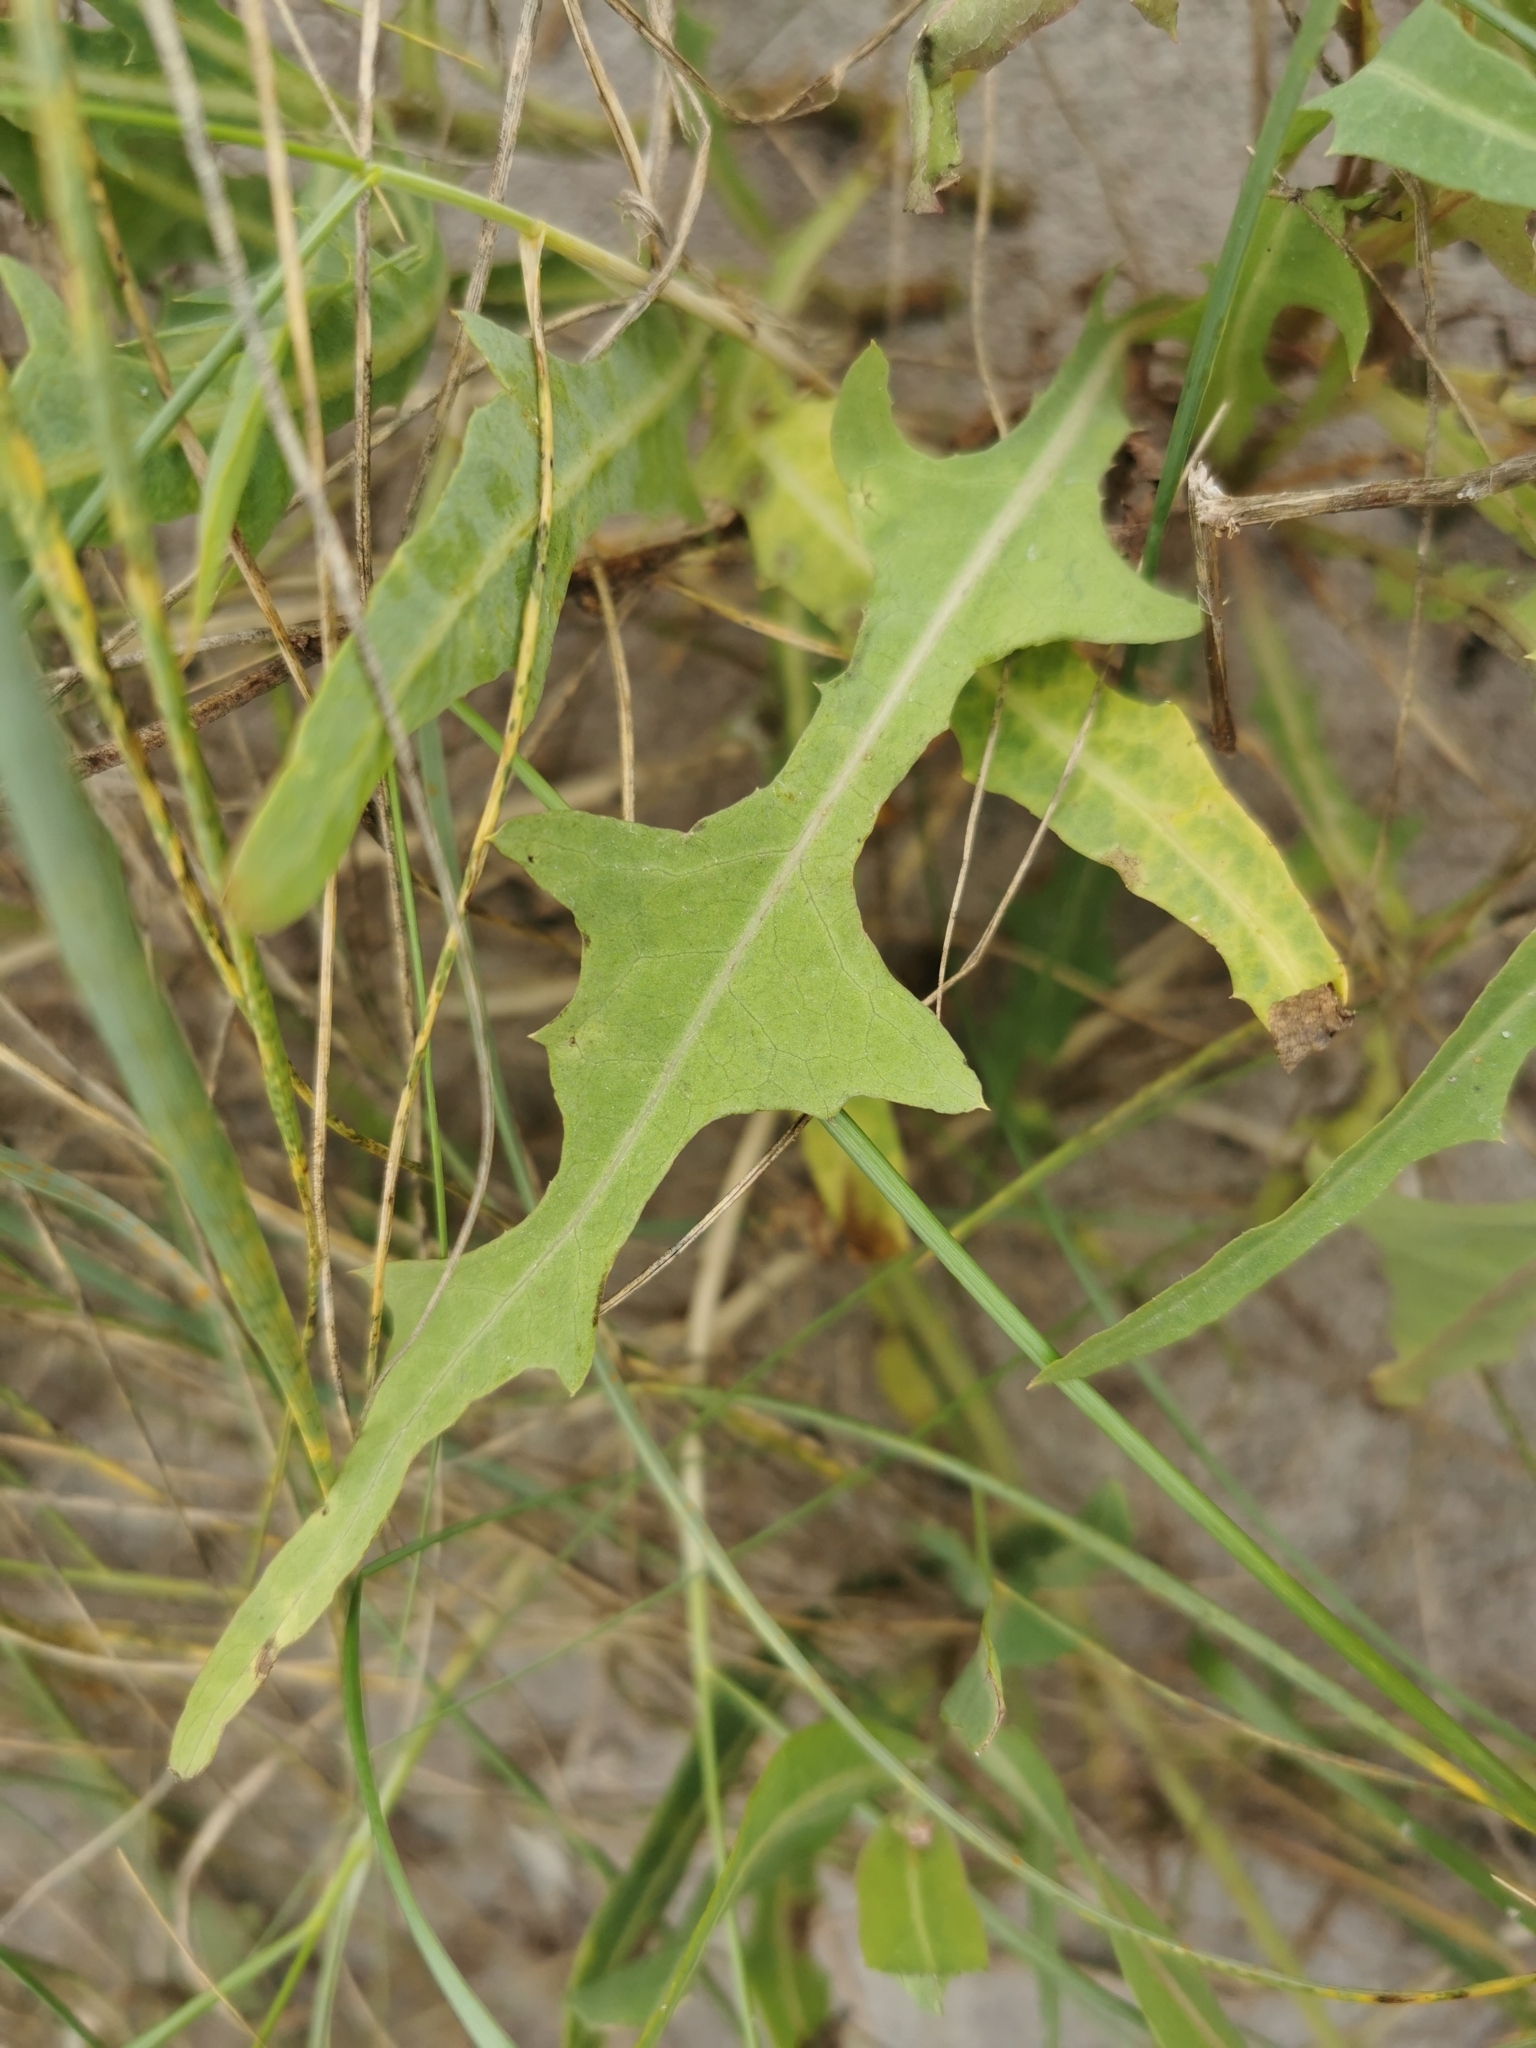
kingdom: Plantae
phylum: Tracheophyta
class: Magnoliopsida
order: Asterales
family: Asteraceae
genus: Lactuca
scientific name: Lactuca tatarica
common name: Blue lettuce
